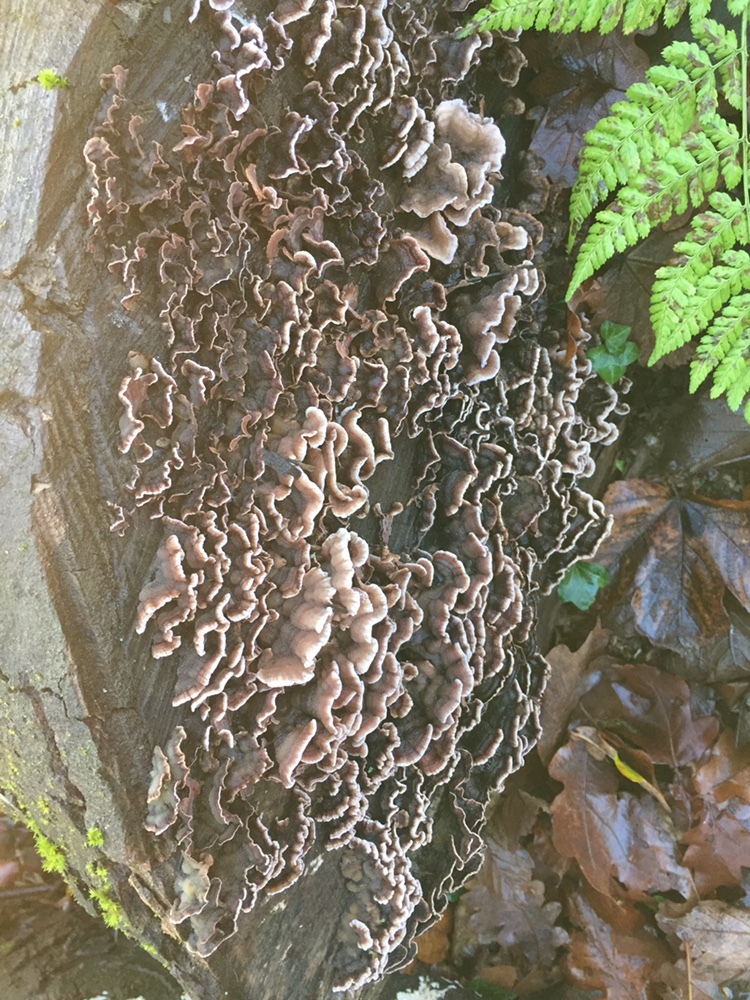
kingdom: Fungi
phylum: Basidiomycota
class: Agaricomycetes
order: Agaricales
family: Cyphellaceae
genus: Chondrostereum
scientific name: Chondrostereum purpureum
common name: Silver leaf disease
